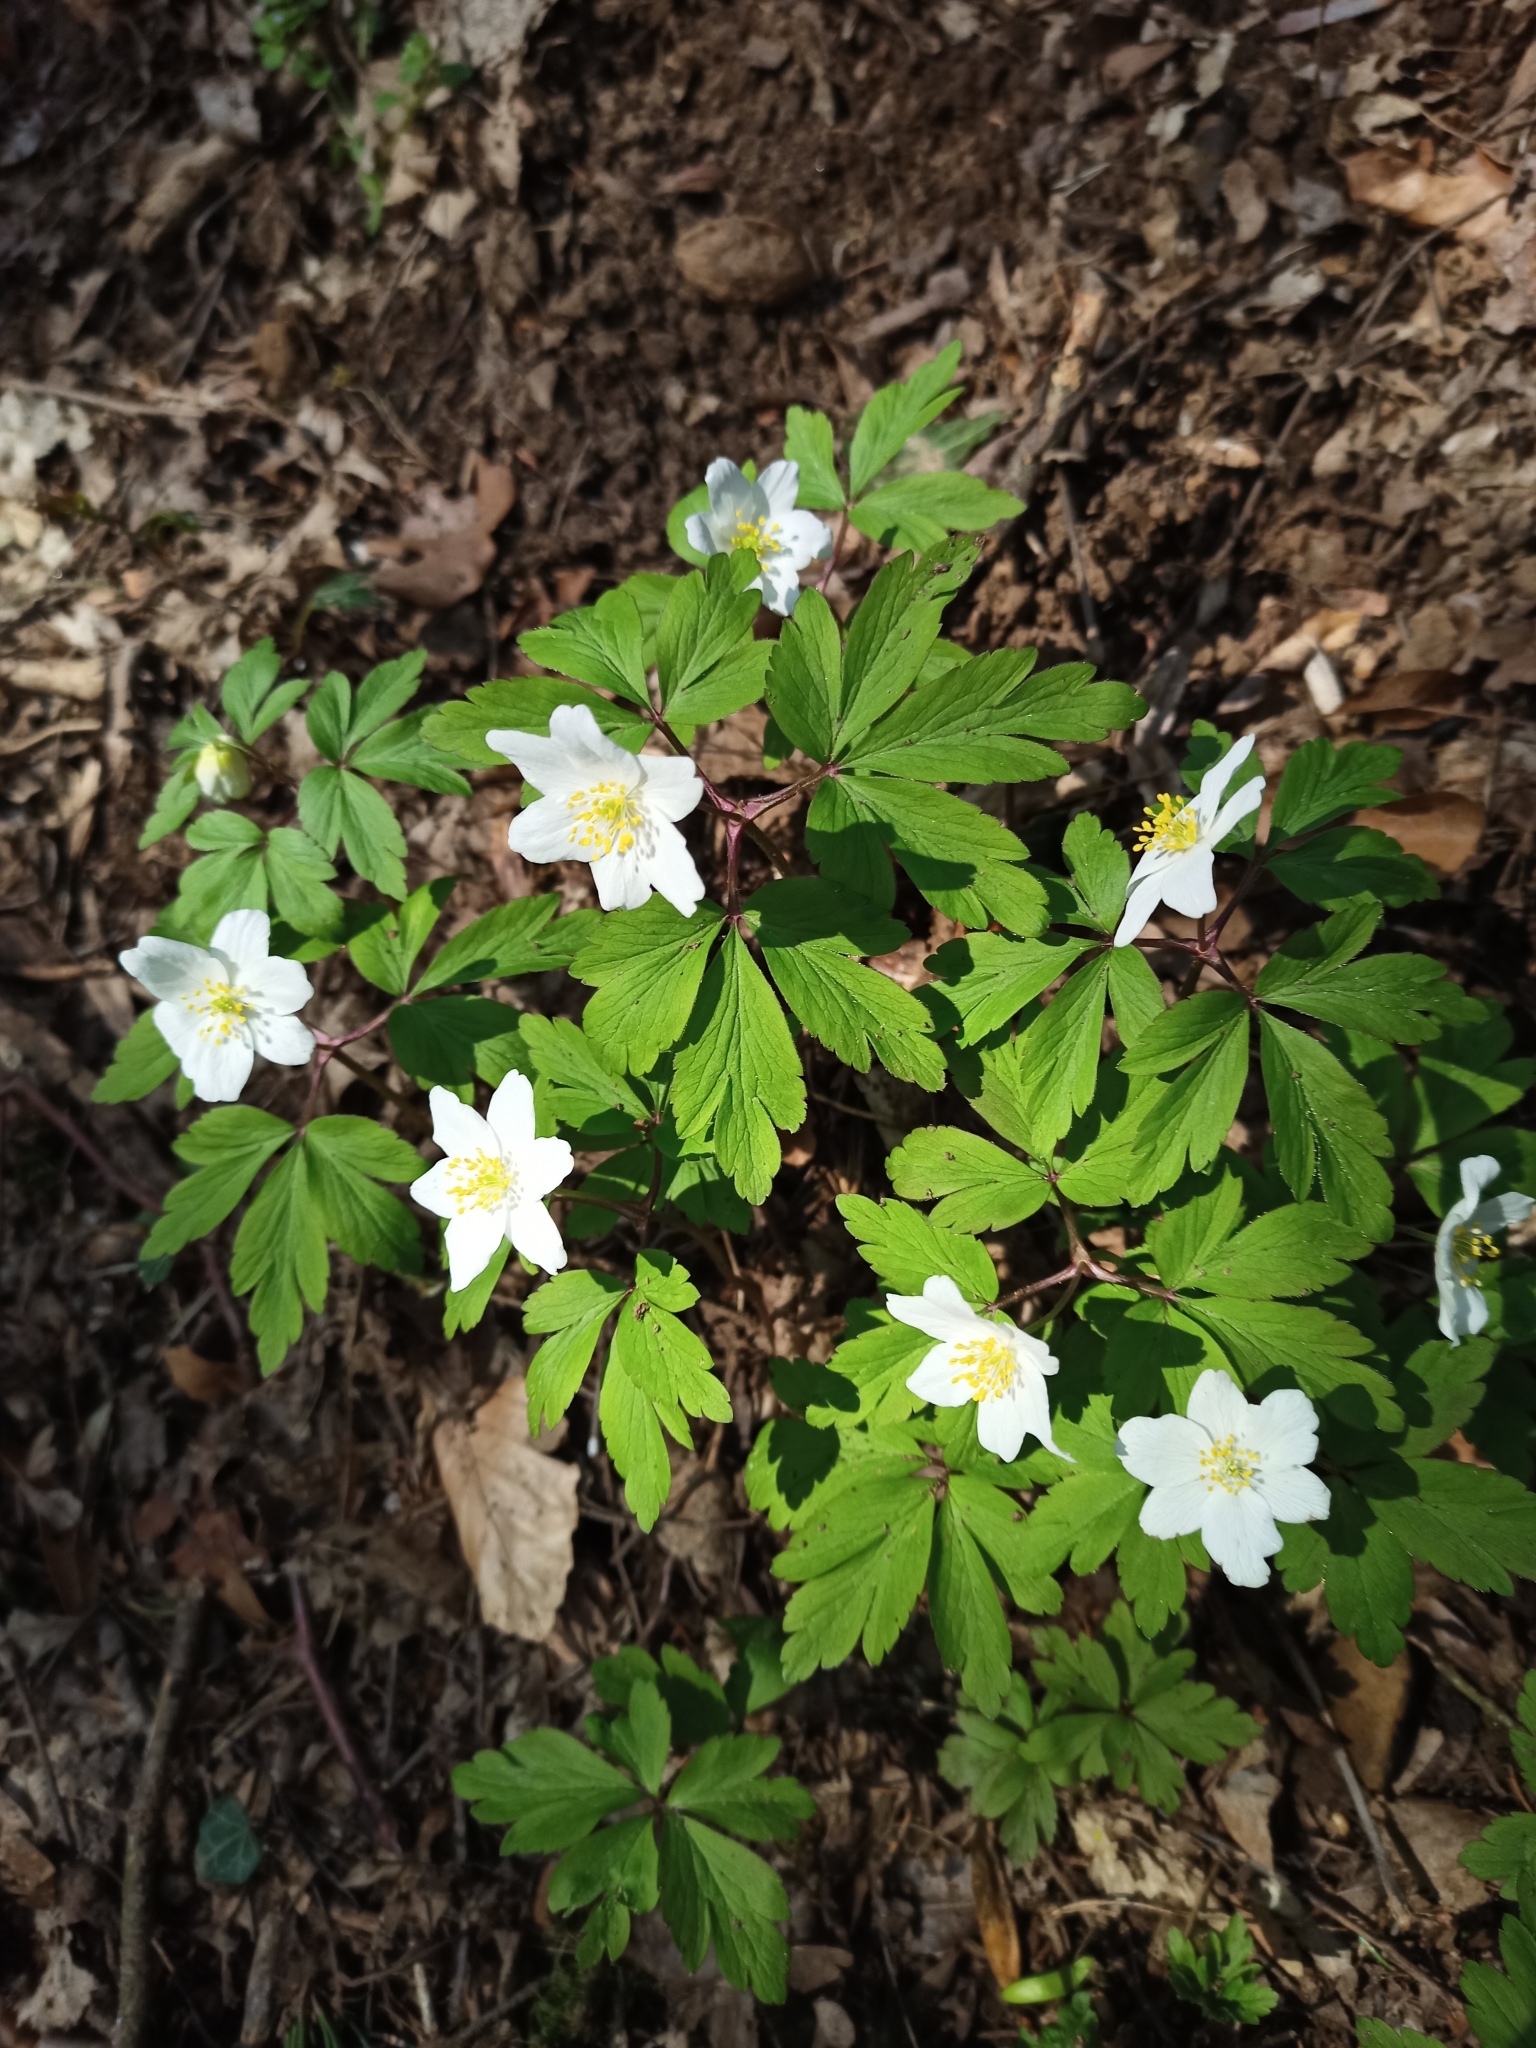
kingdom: Plantae
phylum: Tracheophyta
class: Magnoliopsida
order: Ranunculales
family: Ranunculaceae
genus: Anemone
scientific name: Anemone nemorosa
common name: Wood anemone
